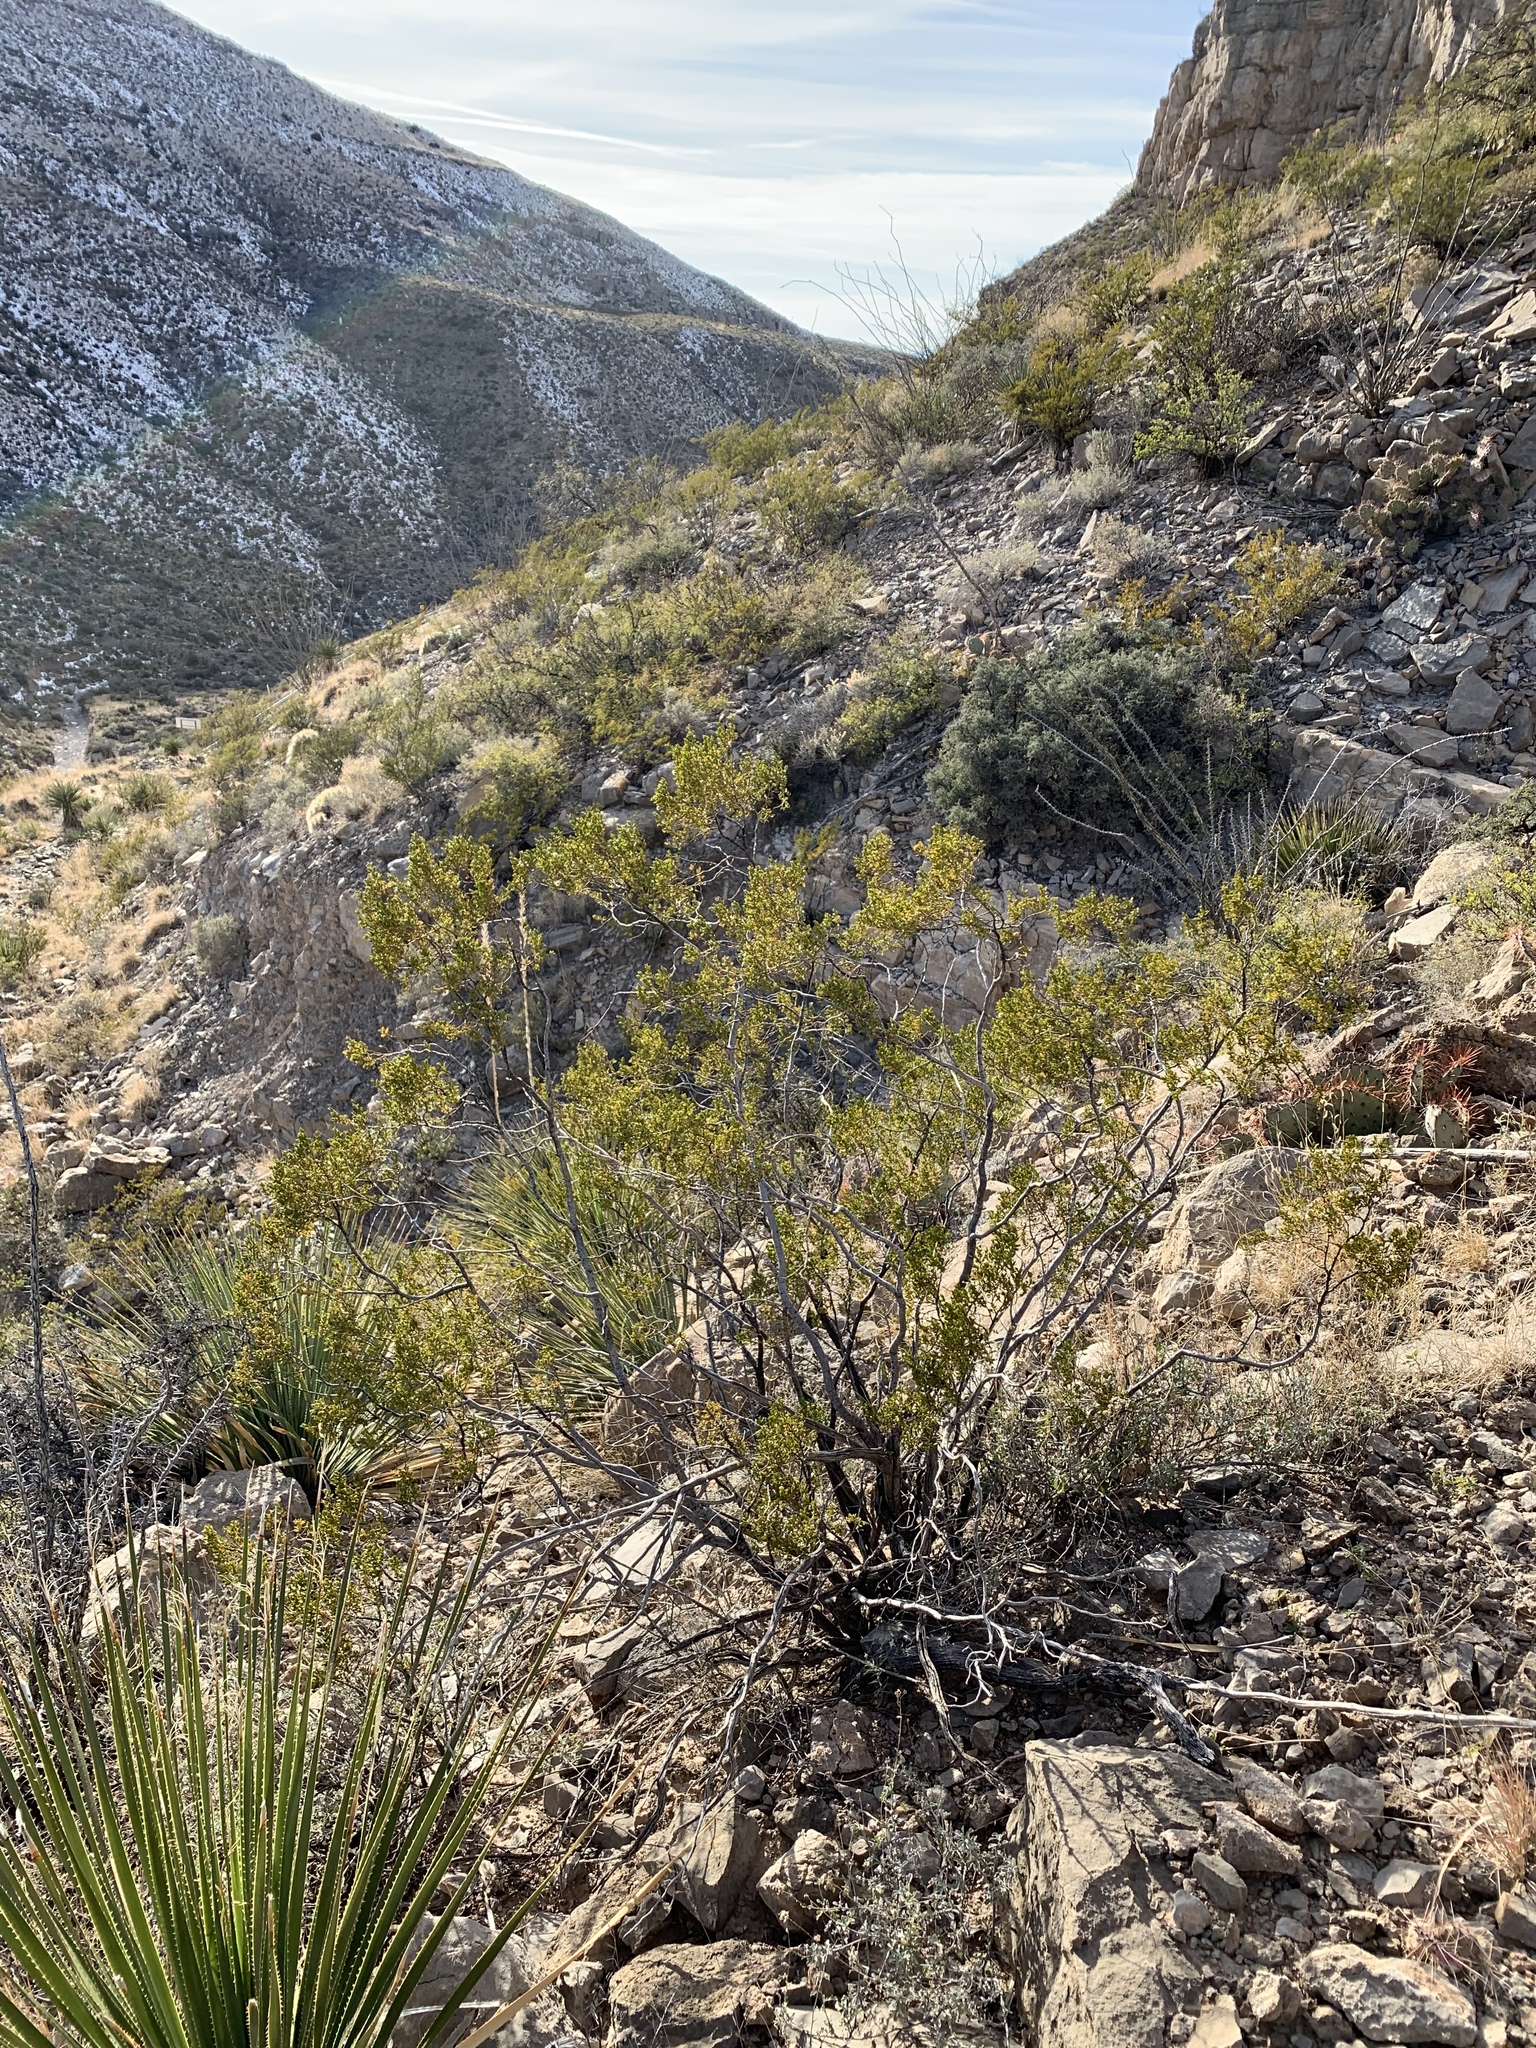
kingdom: Plantae
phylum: Tracheophyta
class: Magnoliopsida
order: Zygophyllales
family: Zygophyllaceae
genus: Larrea
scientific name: Larrea tridentata
